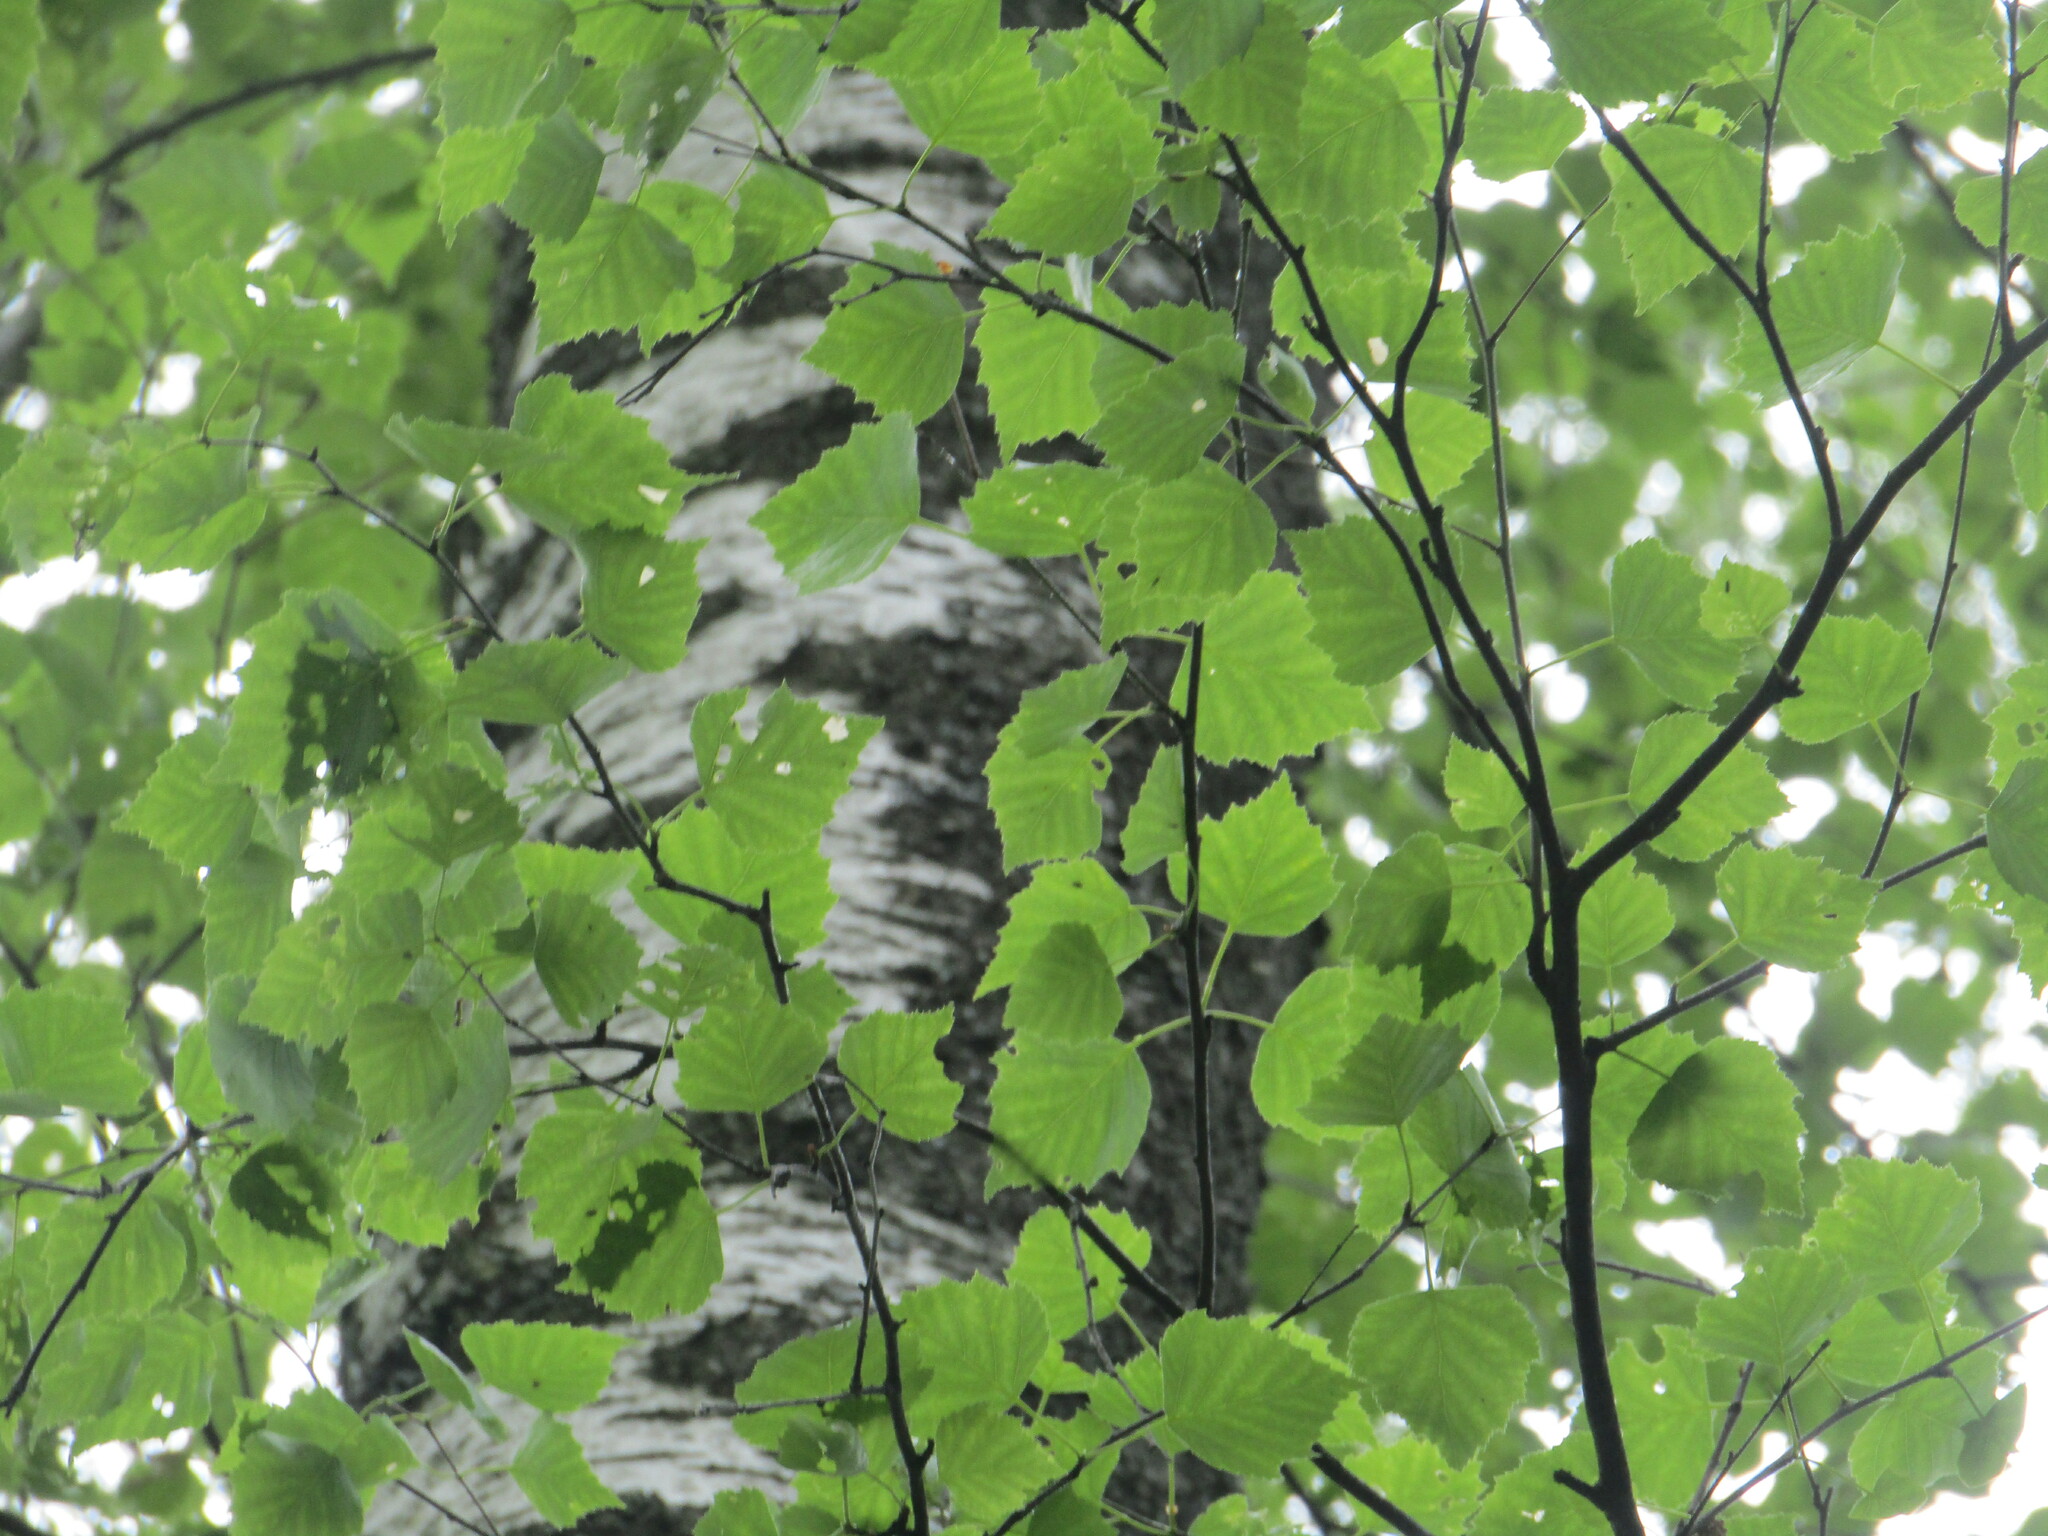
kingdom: Plantae
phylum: Tracheophyta
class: Magnoliopsida
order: Fagales
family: Betulaceae
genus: Betula
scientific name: Betula pendula
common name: Silver birch
